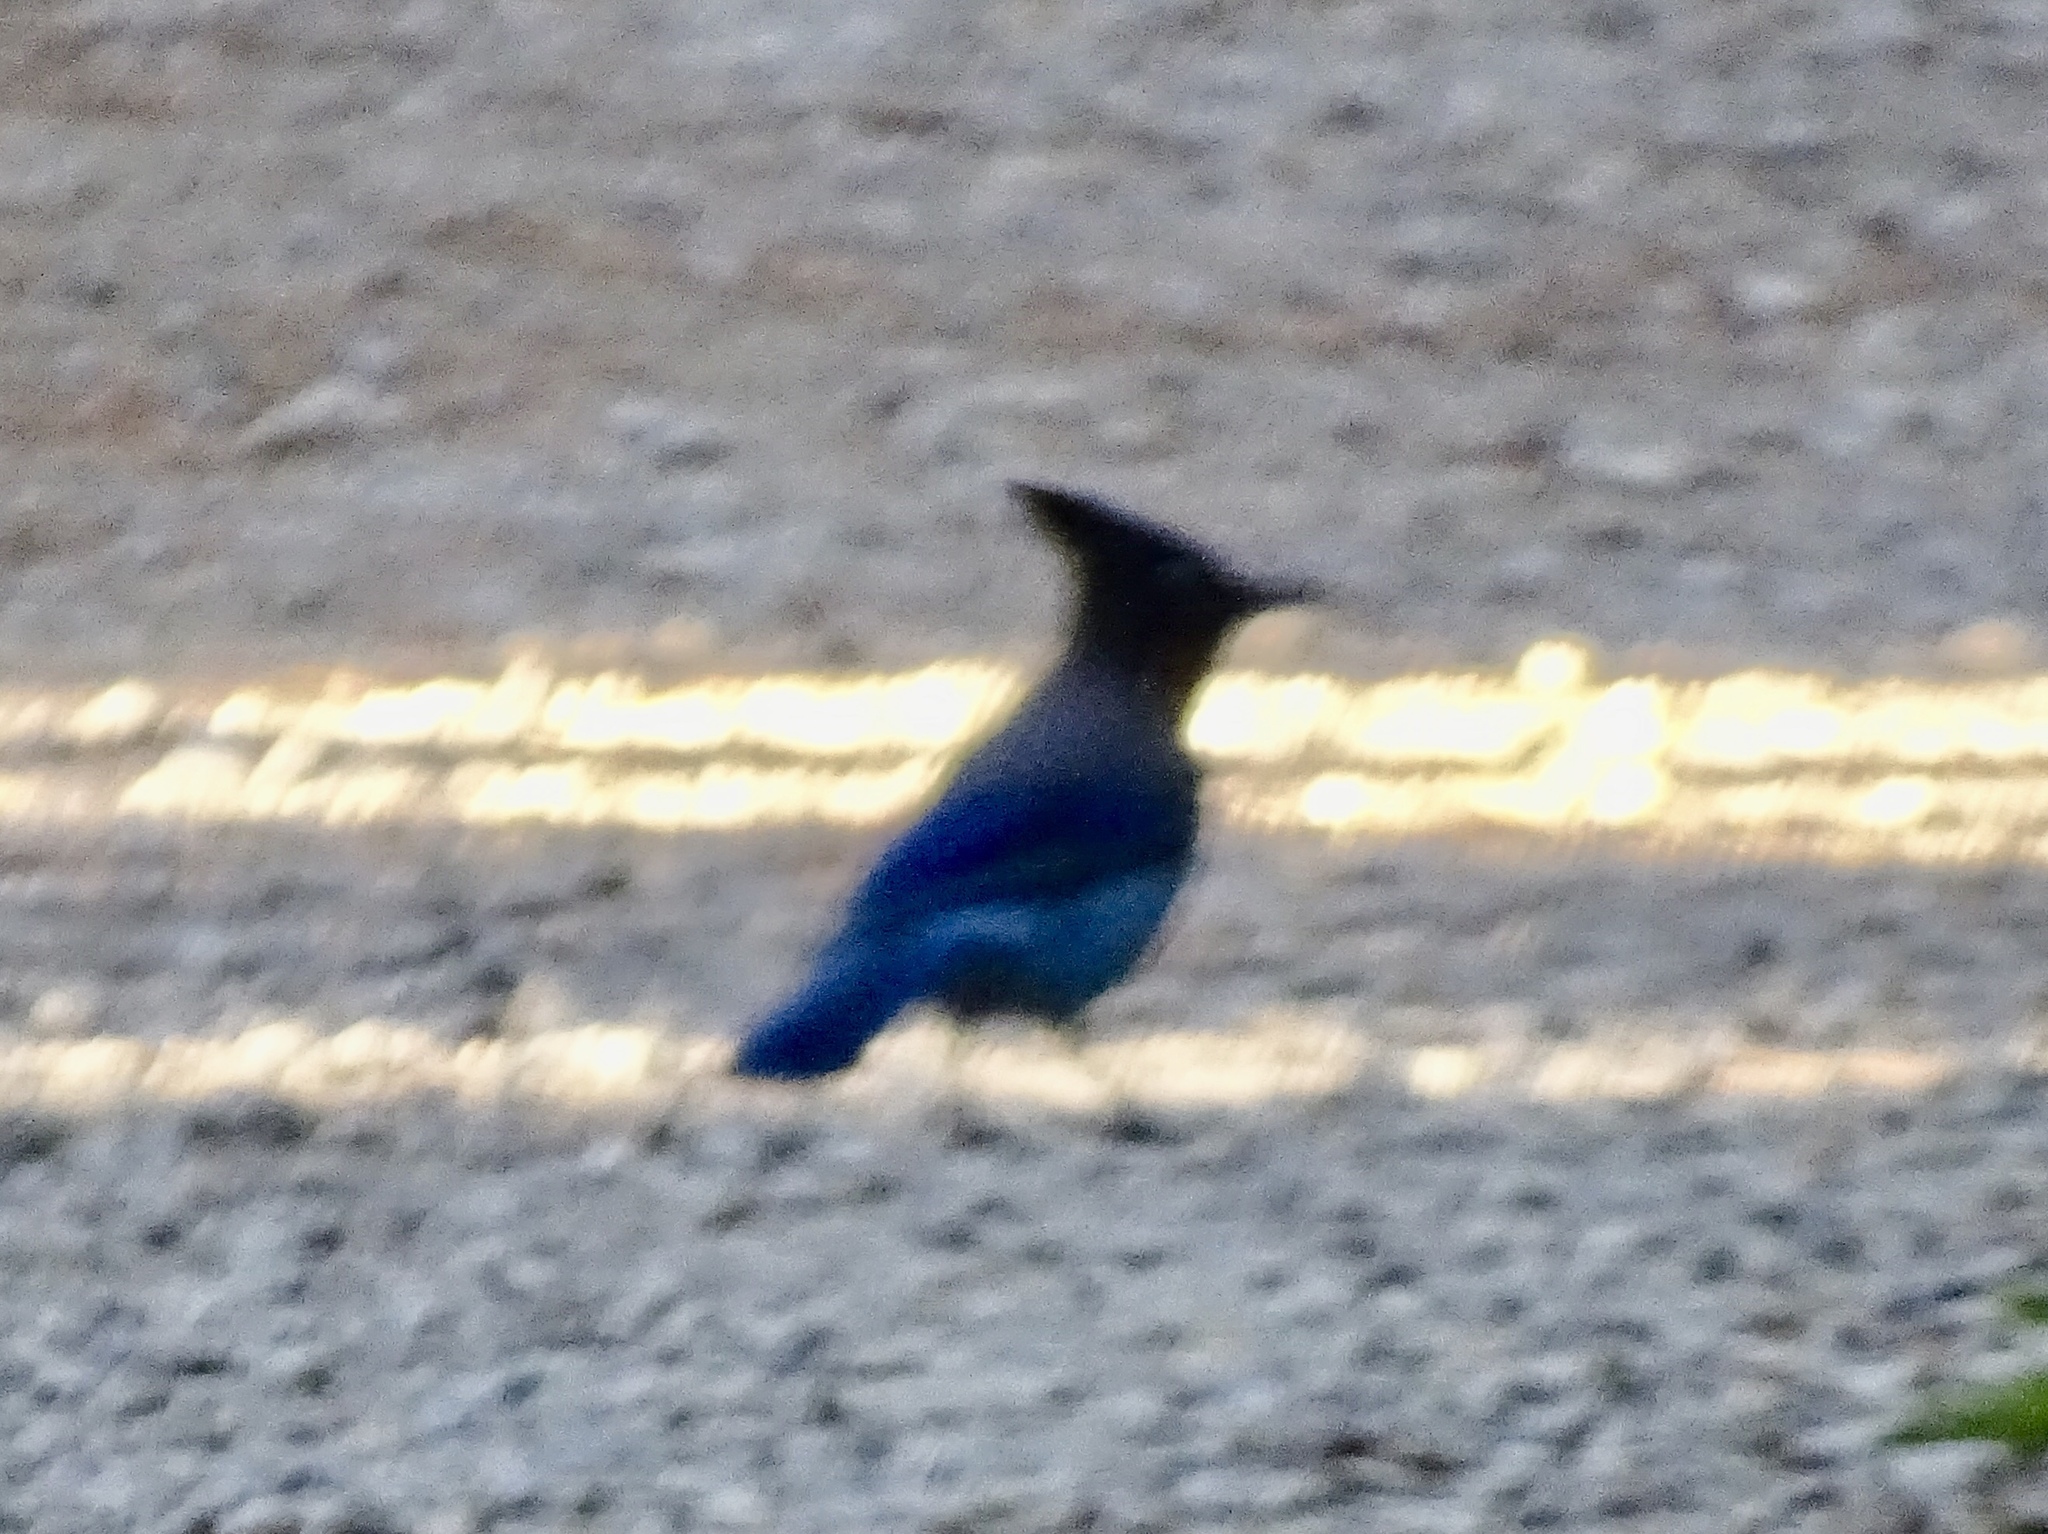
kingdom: Animalia
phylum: Chordata
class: Aves
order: Passeriformes
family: Corvidae
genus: Cyanocitta
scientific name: Cyanocitta stelleri
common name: Steller's jay
